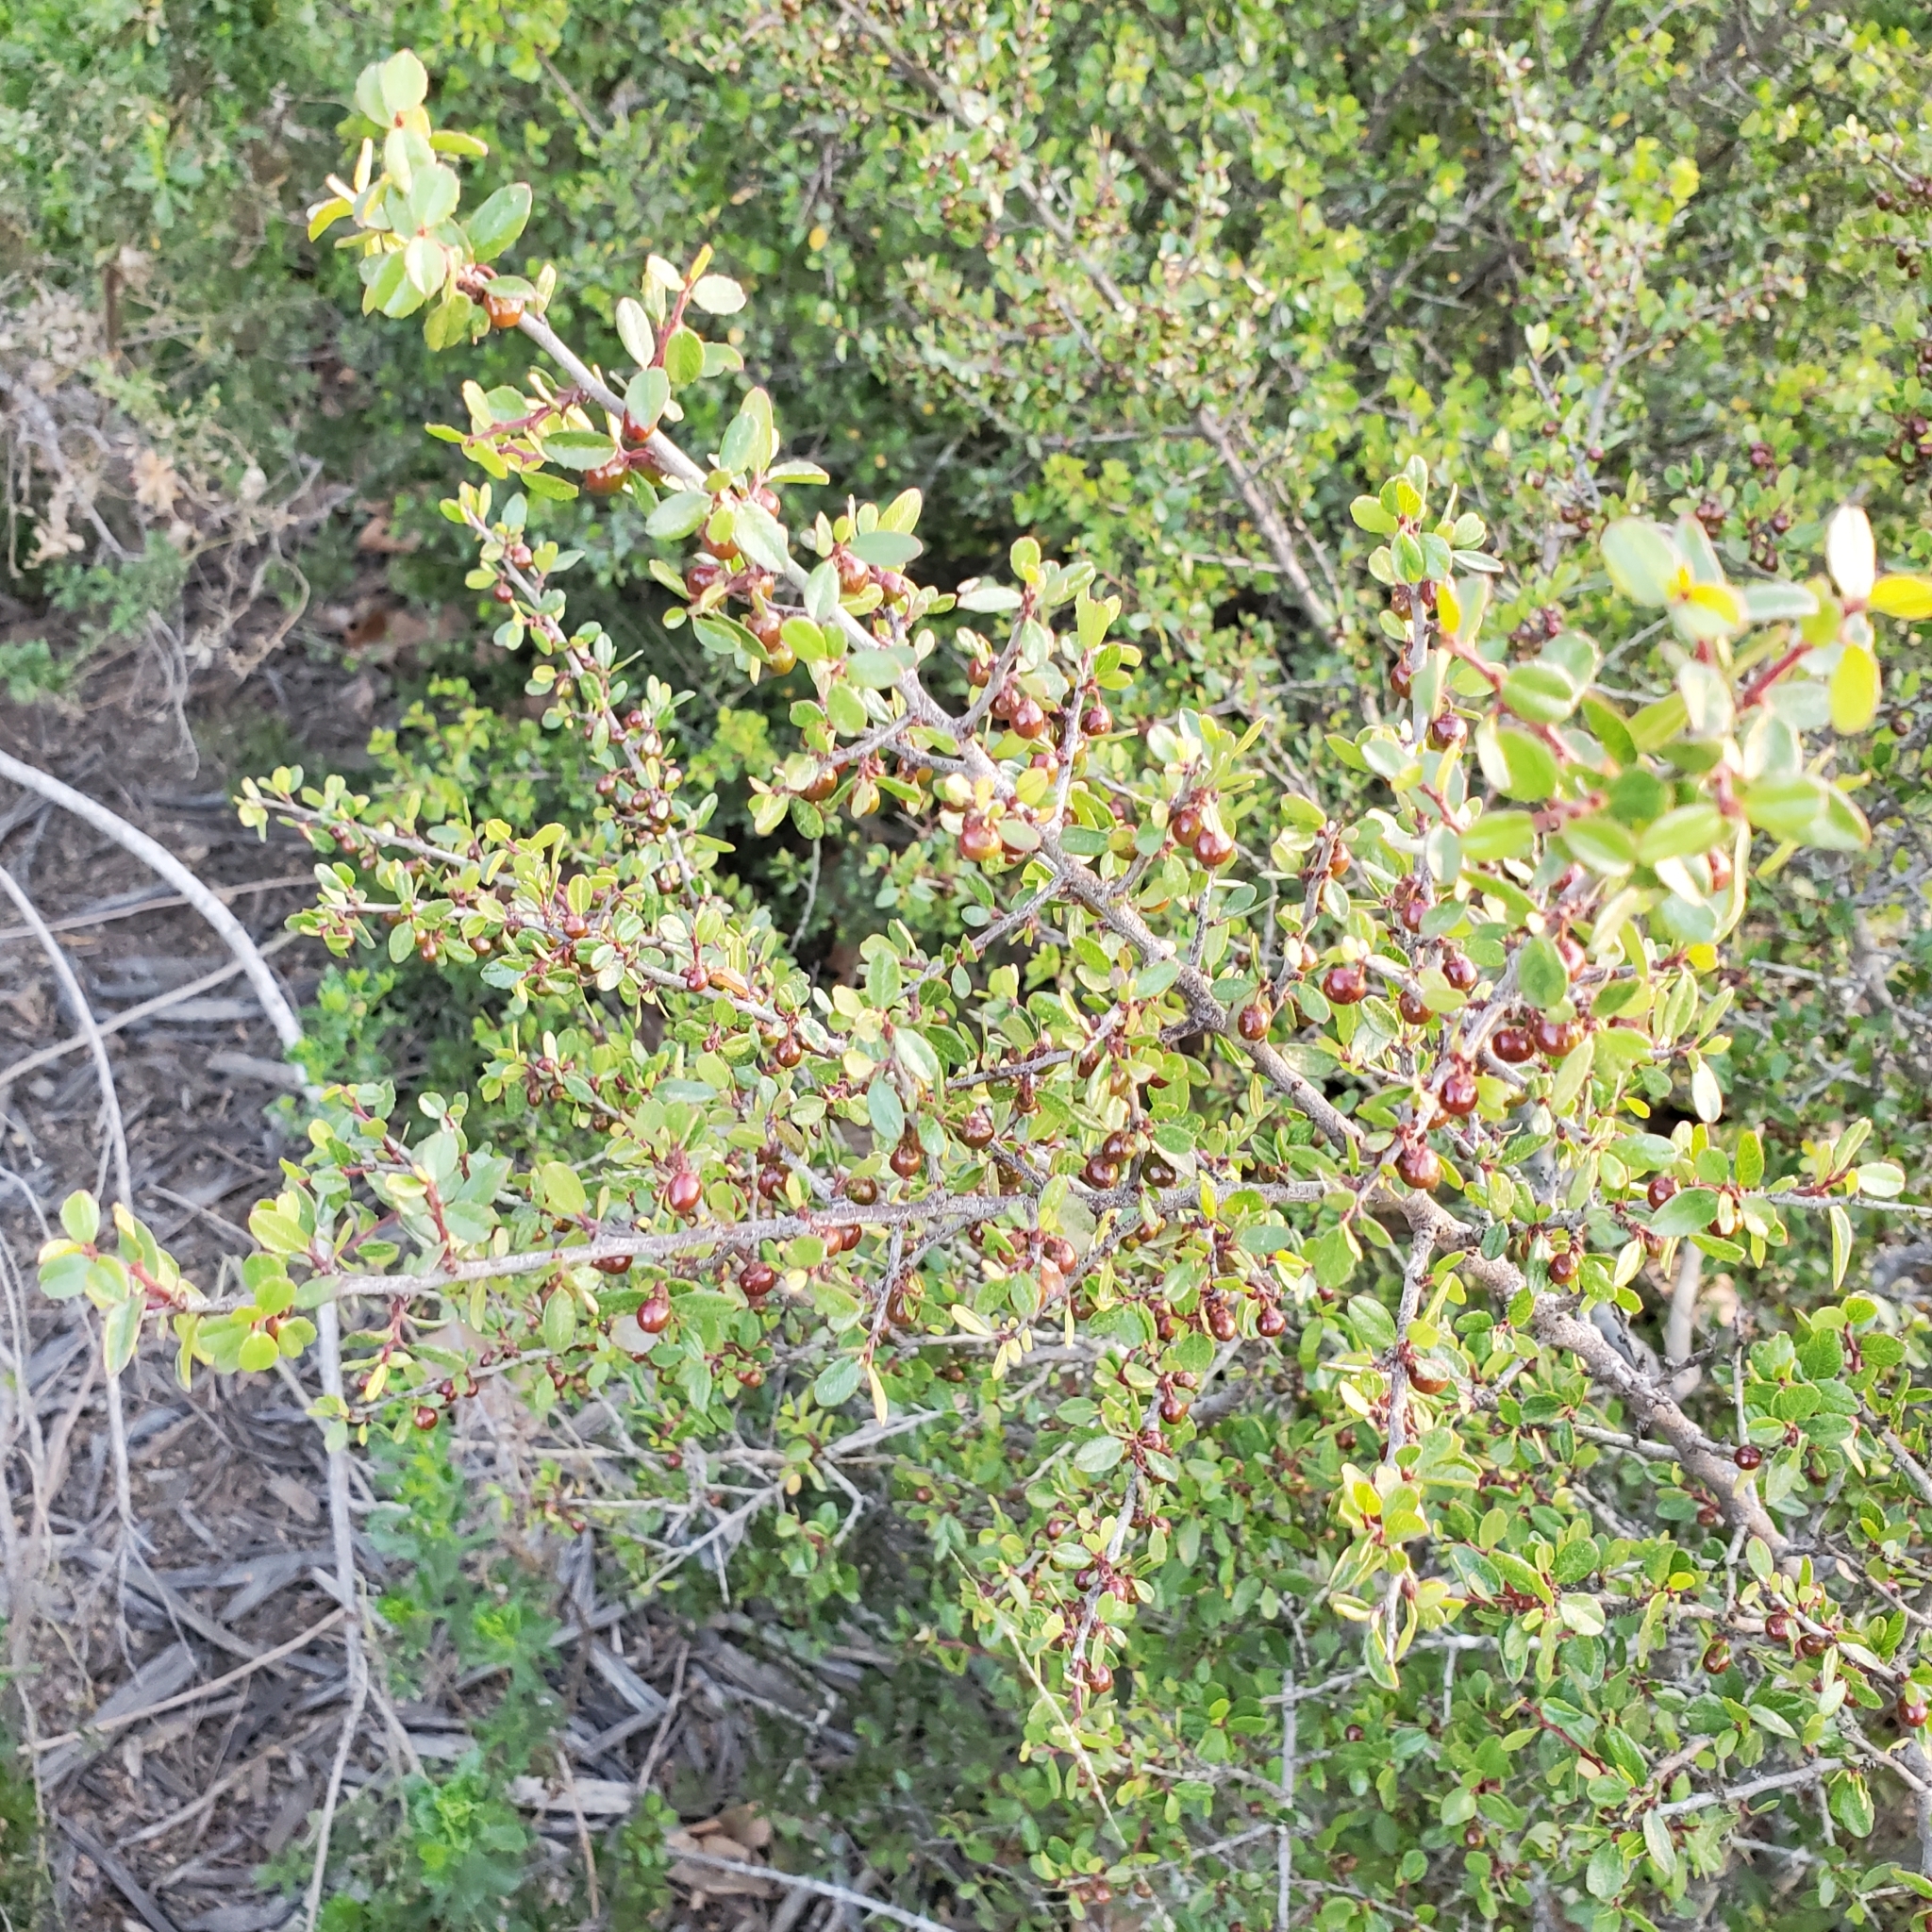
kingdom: Plantae
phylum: Tracheophyta
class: Magnoliopsida
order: Rosales
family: Rhamnaceae
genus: Endotropis
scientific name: Endotropis crocea
